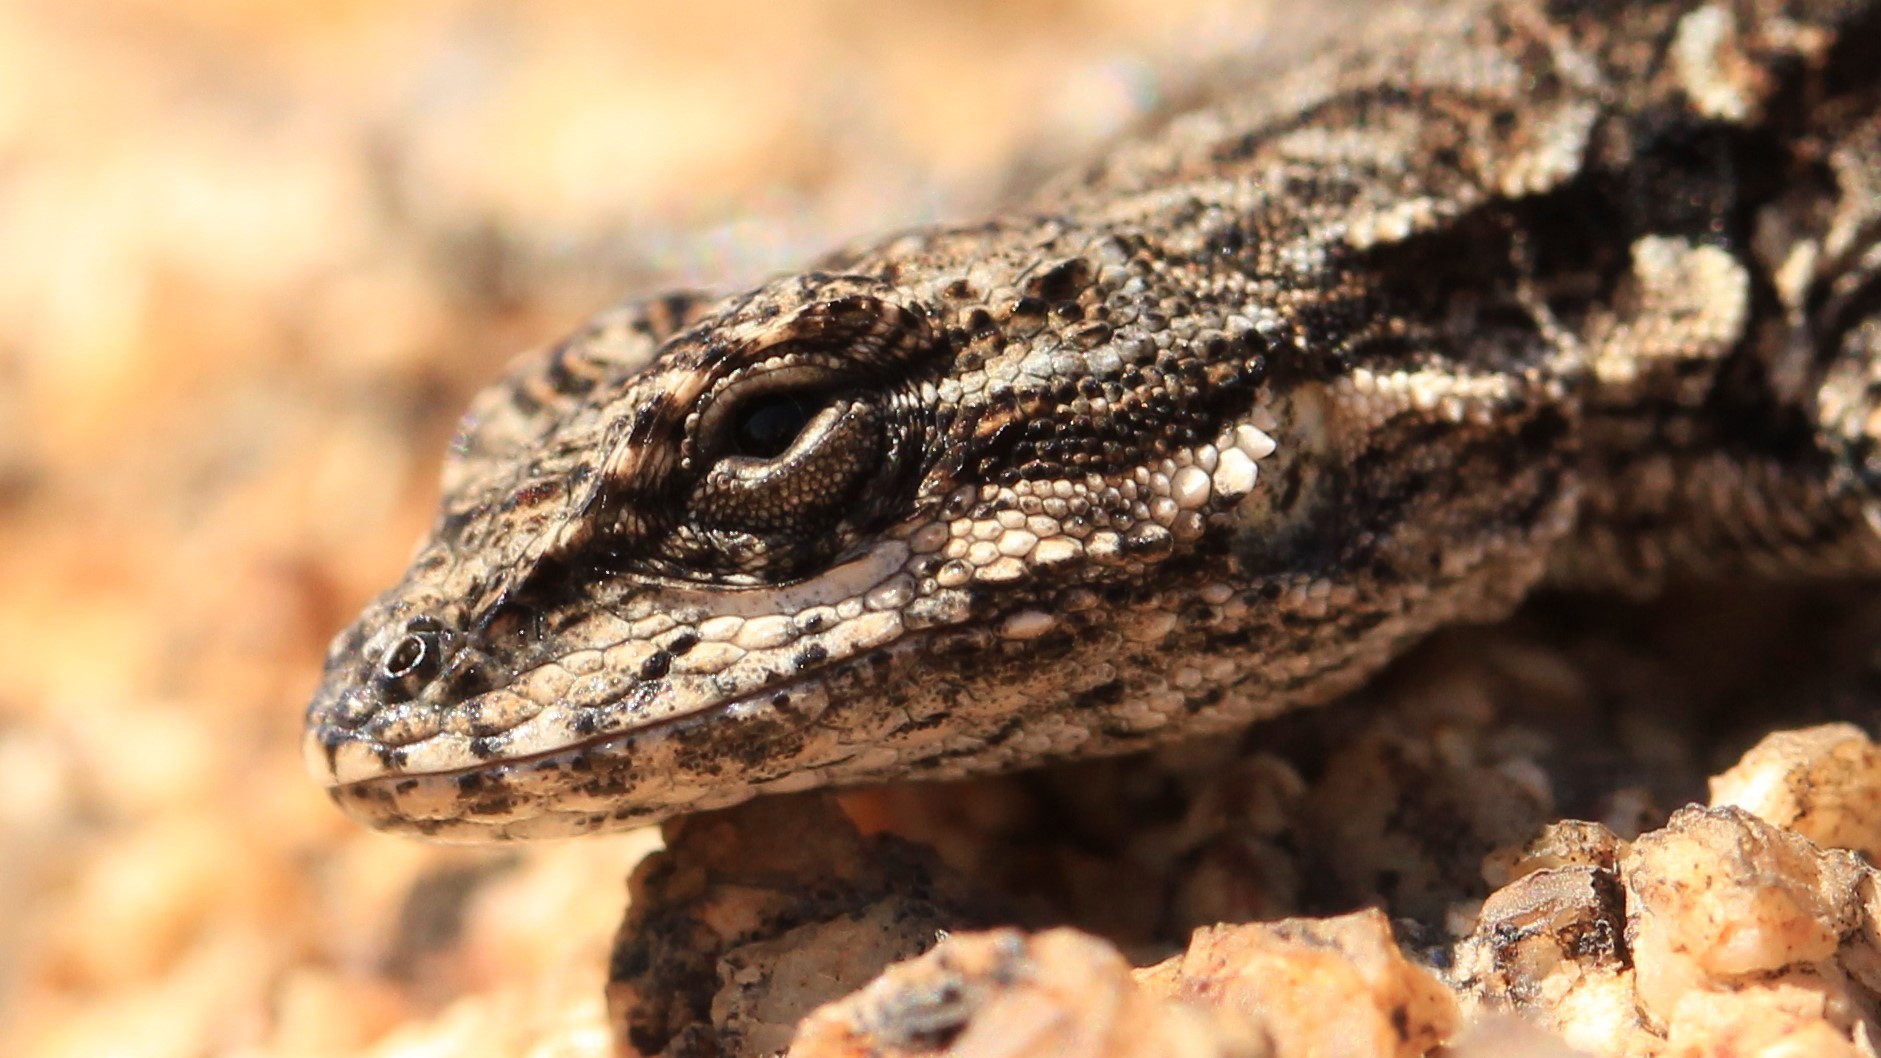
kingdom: Animalia
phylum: Chordata
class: Squamata
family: Phrynosomatidae
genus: Urosaurus
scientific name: Urosaurus ornatus
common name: Ornate tree lizard
